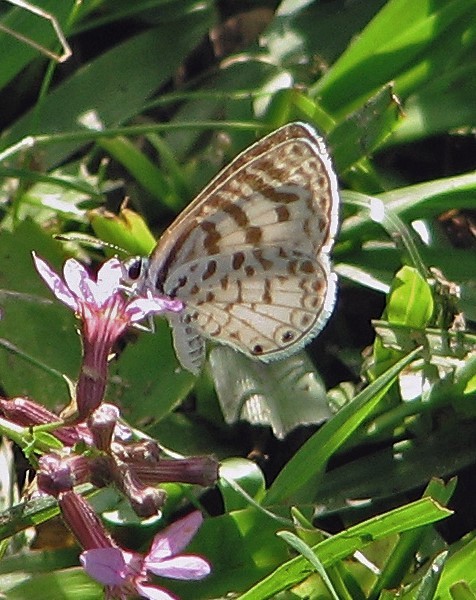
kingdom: Animalia
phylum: Arthropoda
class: Insecta
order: Lepidoptera
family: Lycaenidae
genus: Leptotes
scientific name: Leptotes cassius
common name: Cassius blue
